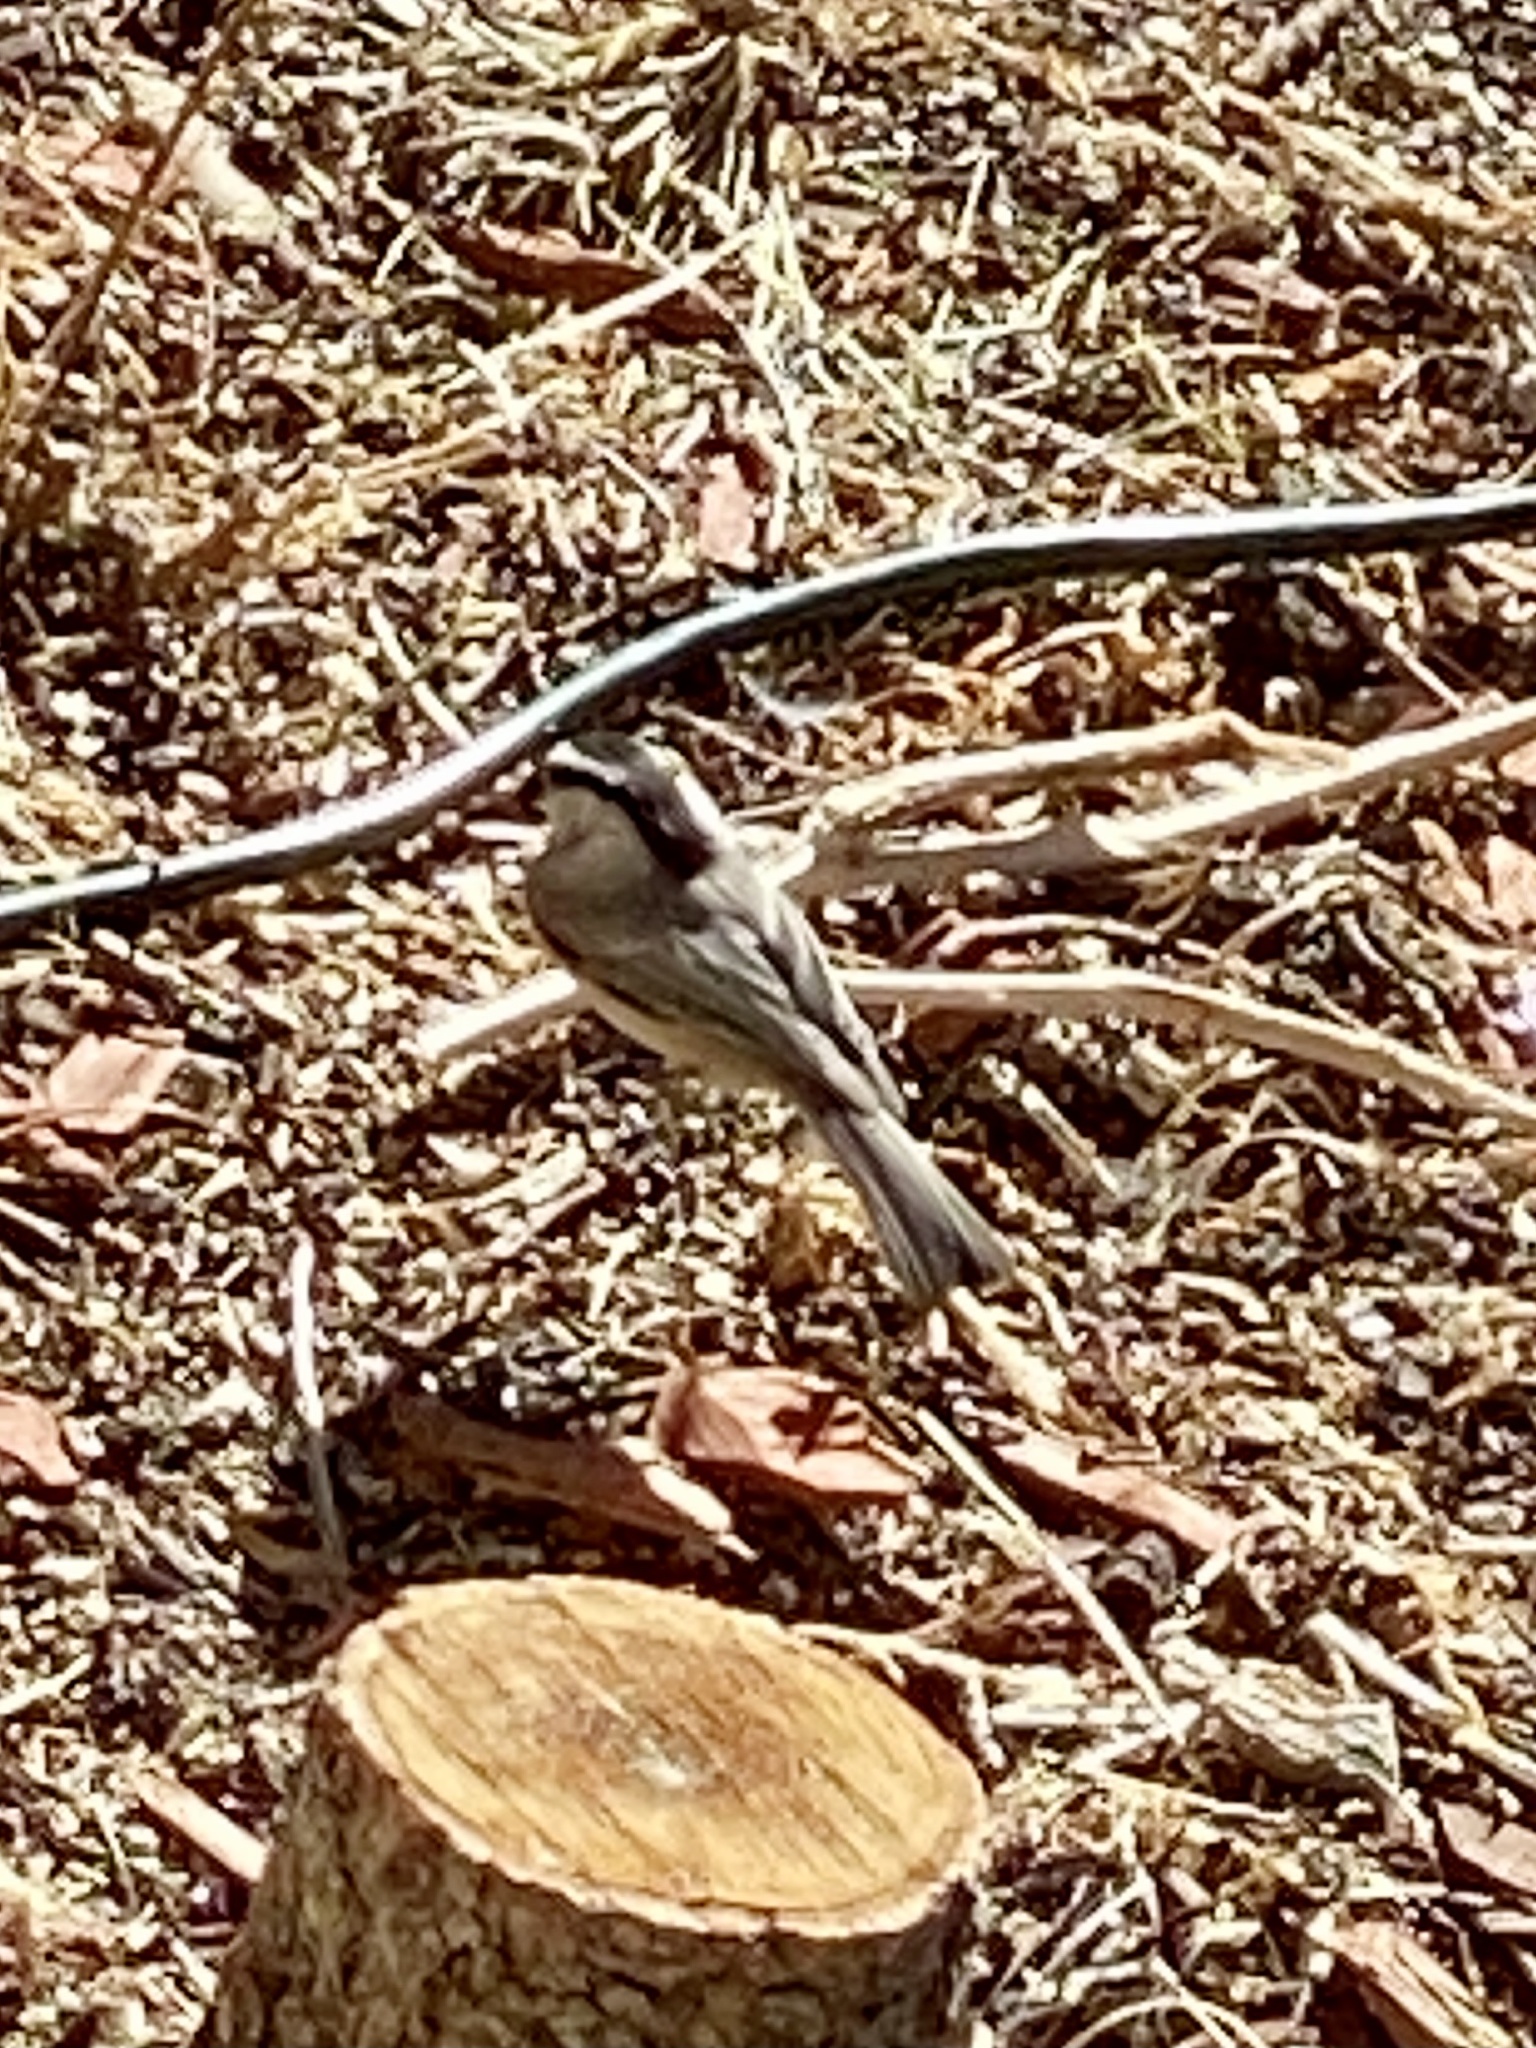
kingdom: Animalia
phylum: Chordata
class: Aves
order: Passeriformes
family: Paridae
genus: Poecile
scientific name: Poecile gambeli
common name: Mountain chickadee
